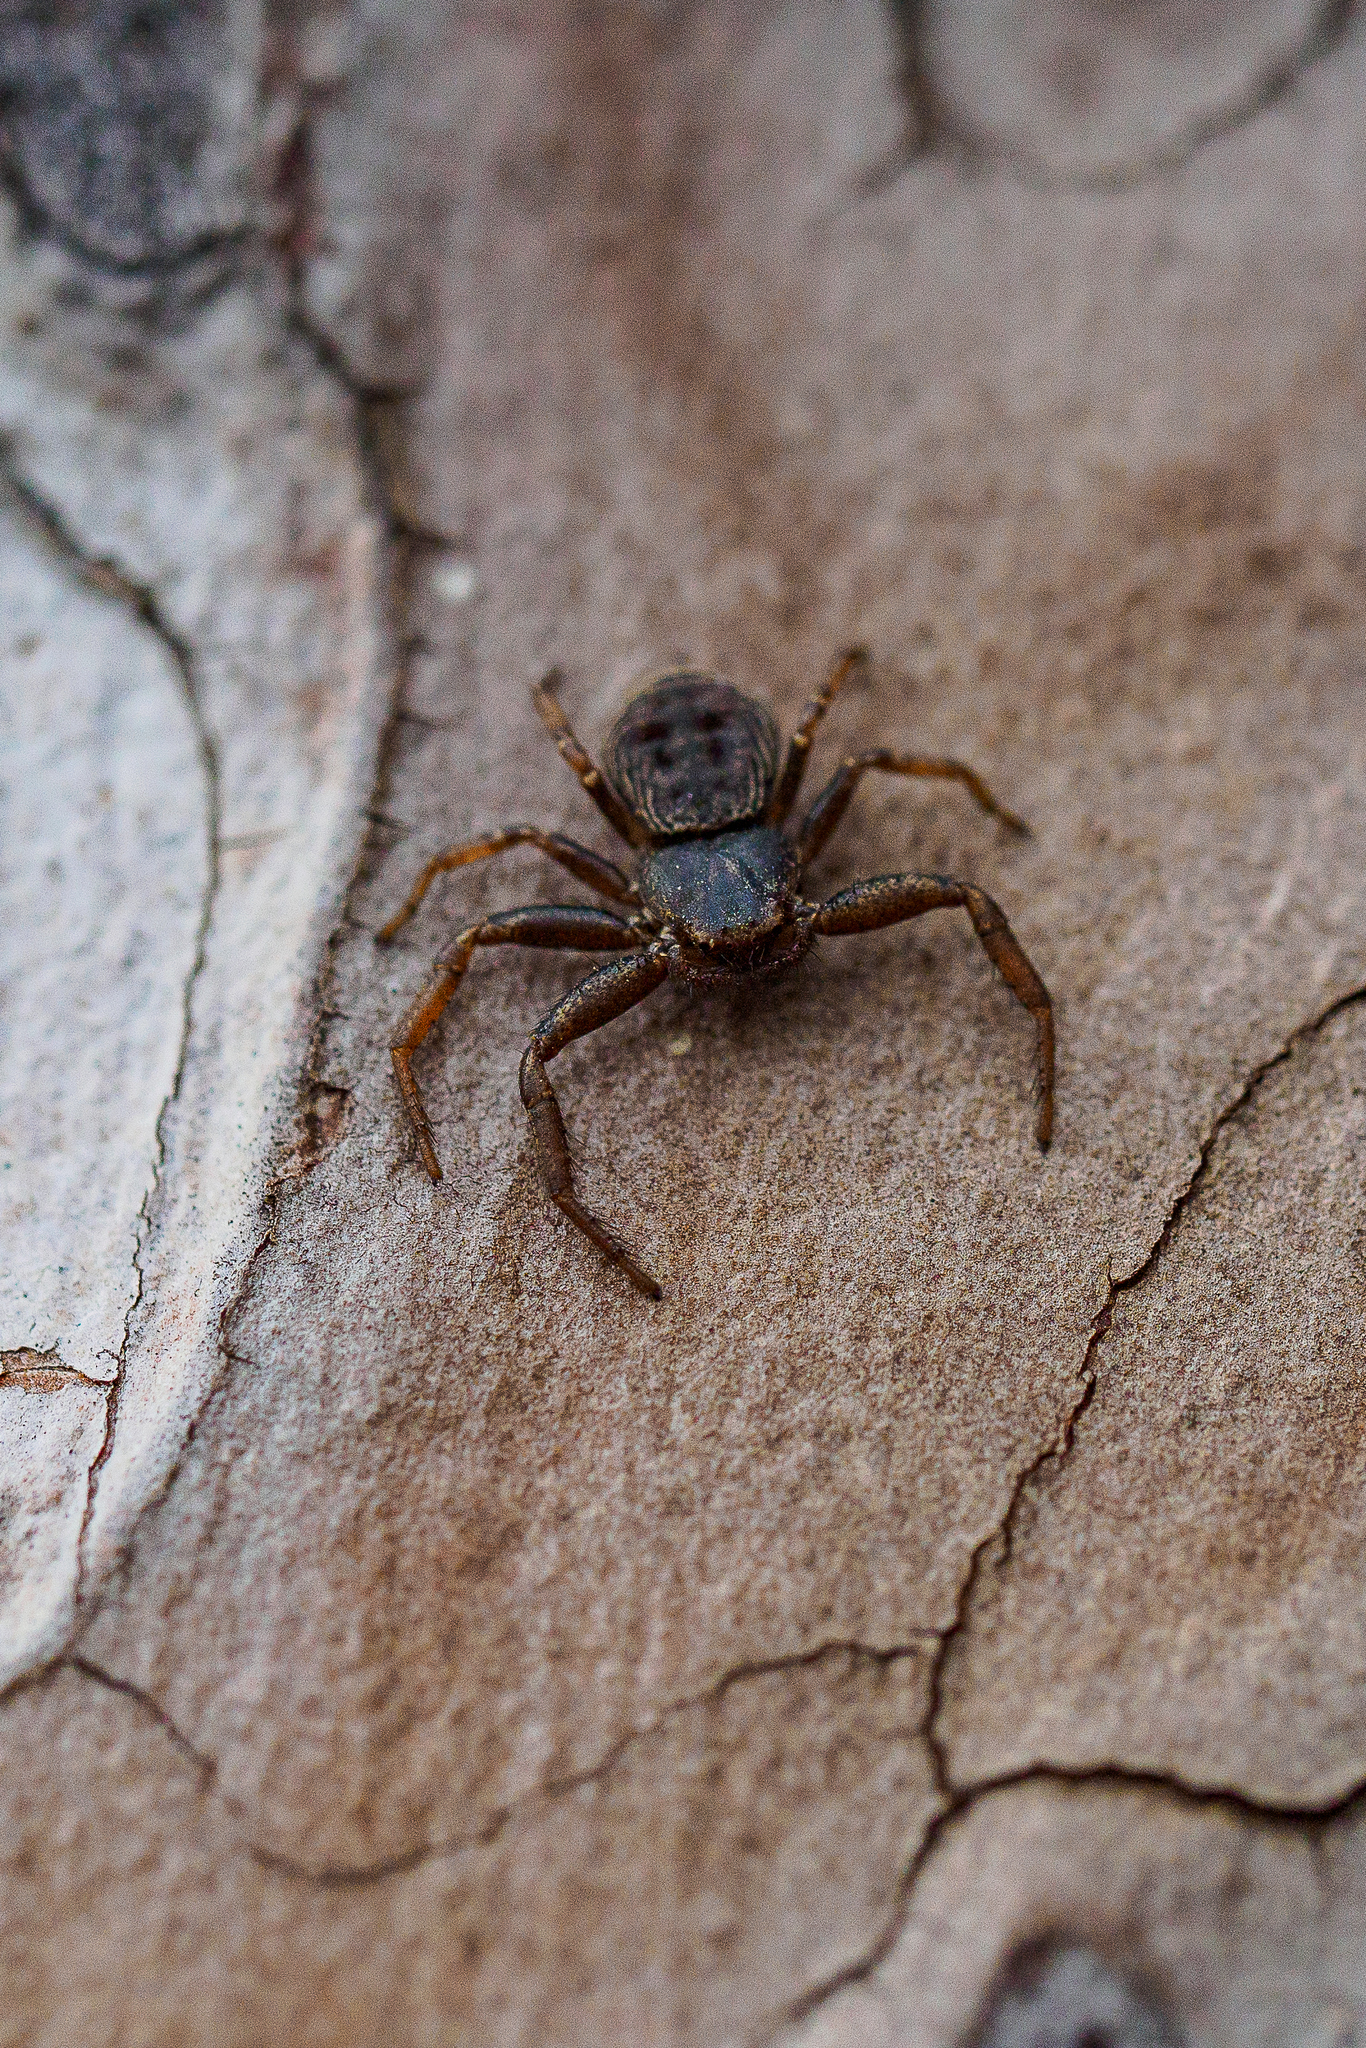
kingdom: Animalia
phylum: Arthropoda
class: Arachnida
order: Araneae
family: Thomisidae
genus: Coriarachne
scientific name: Coriarachne depressa
